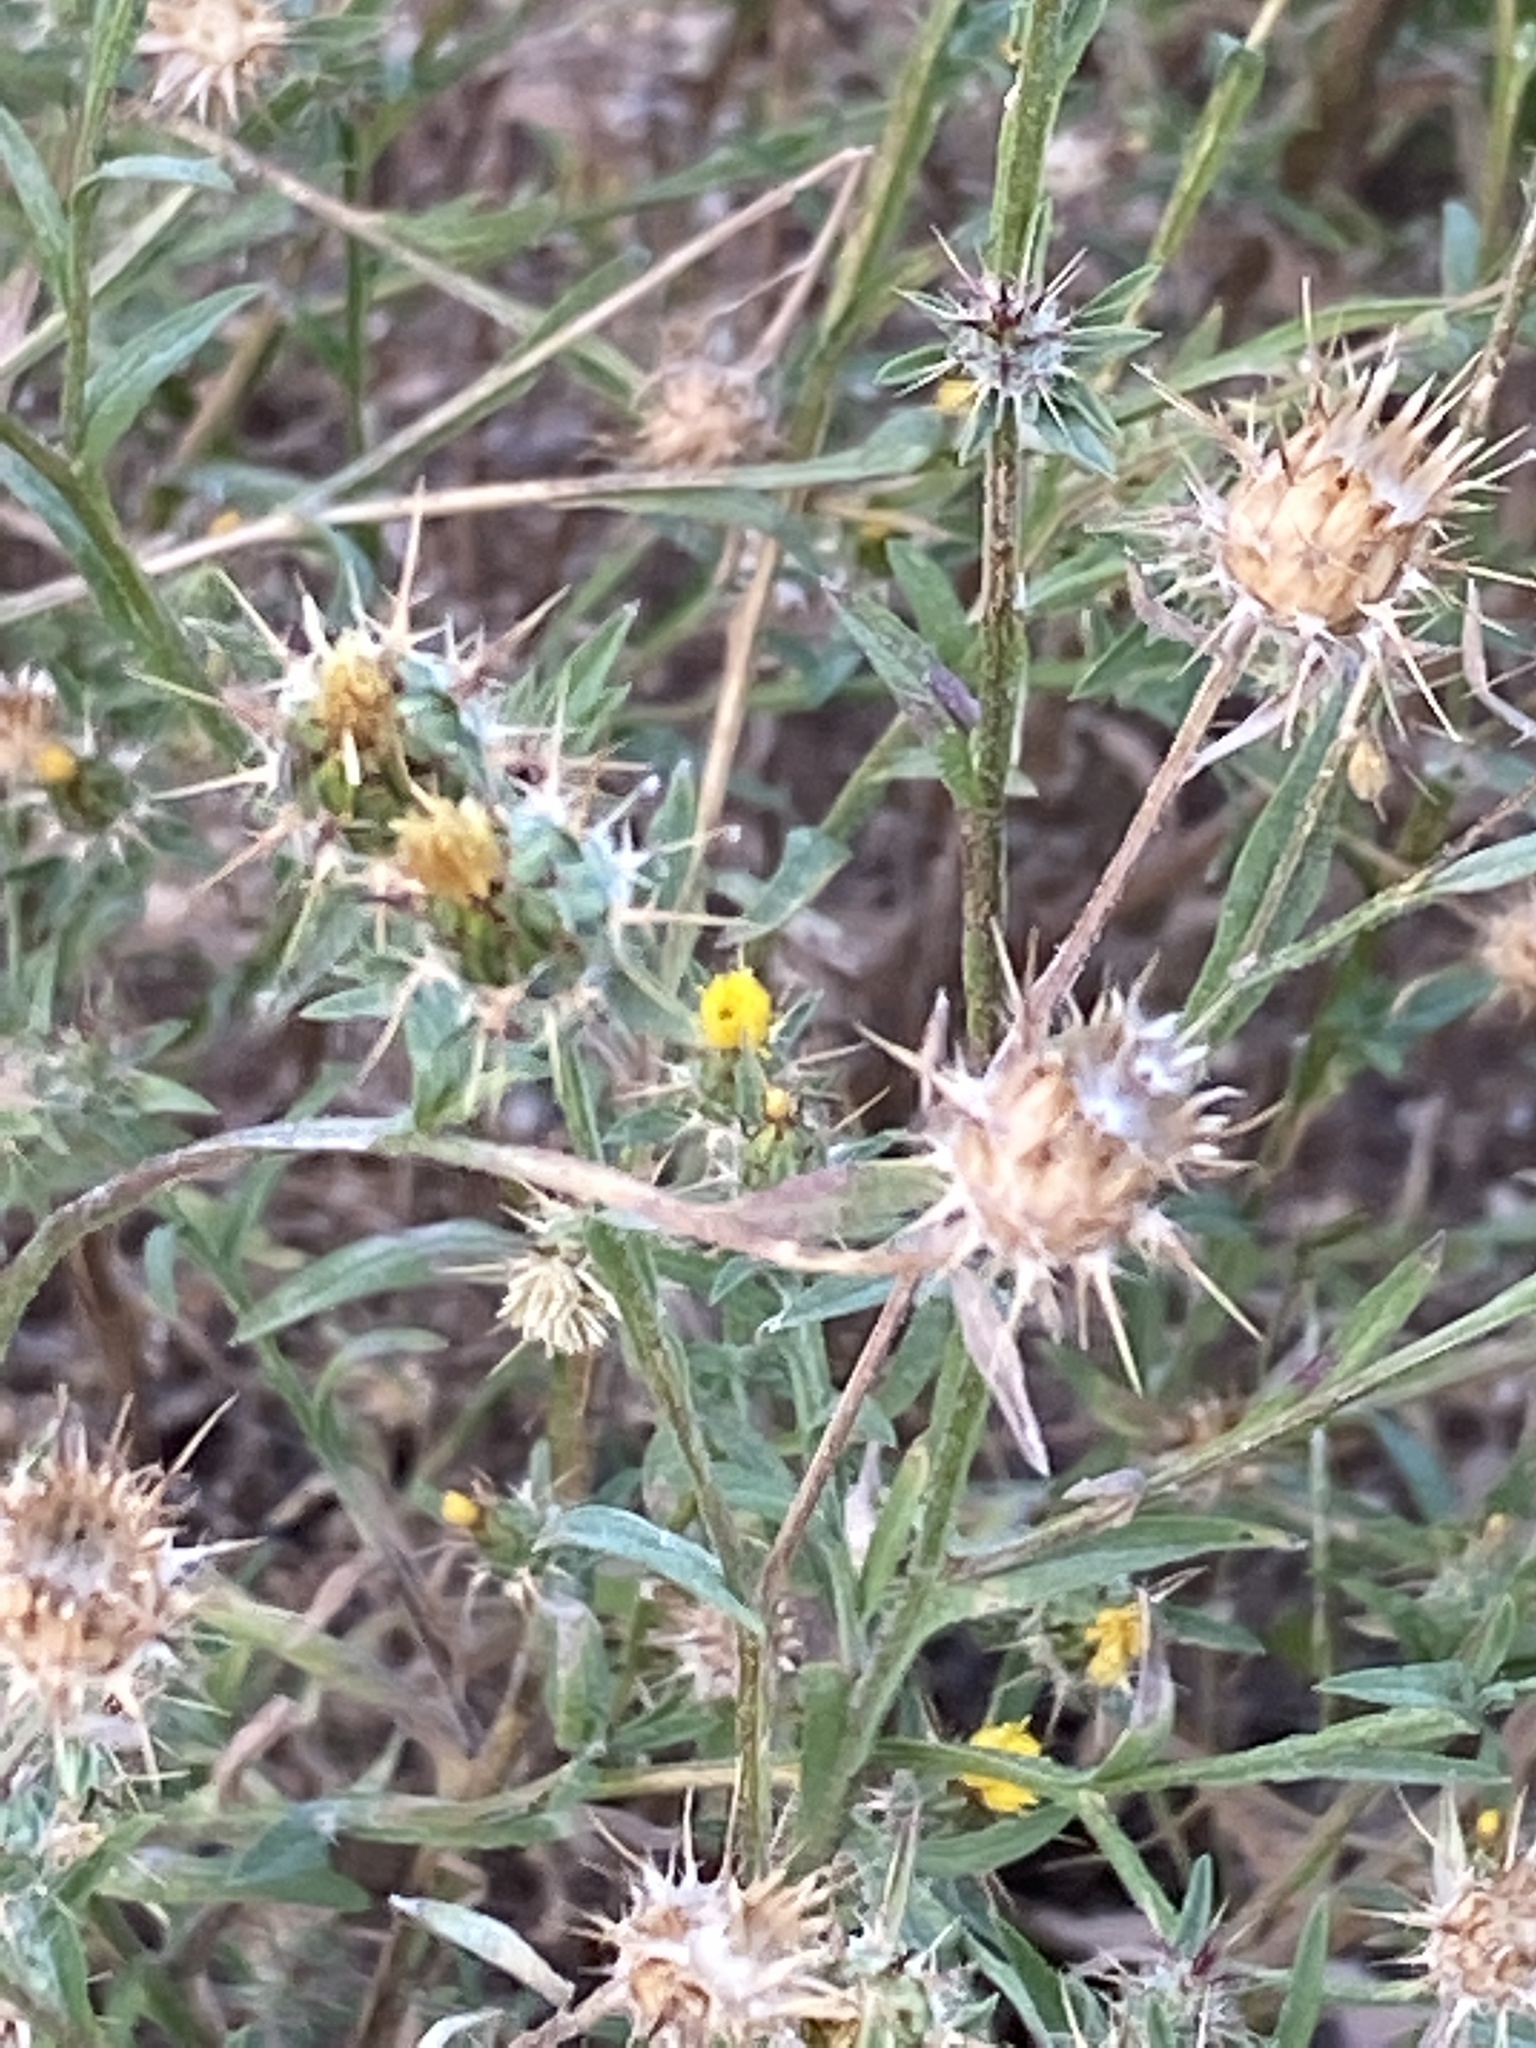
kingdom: Plantae
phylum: Tracheophyta
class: Magnoliopsida
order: Asterales
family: Asteraceae
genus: Centaurea
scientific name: Centaurea melitensis
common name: Maltese star-thistle
